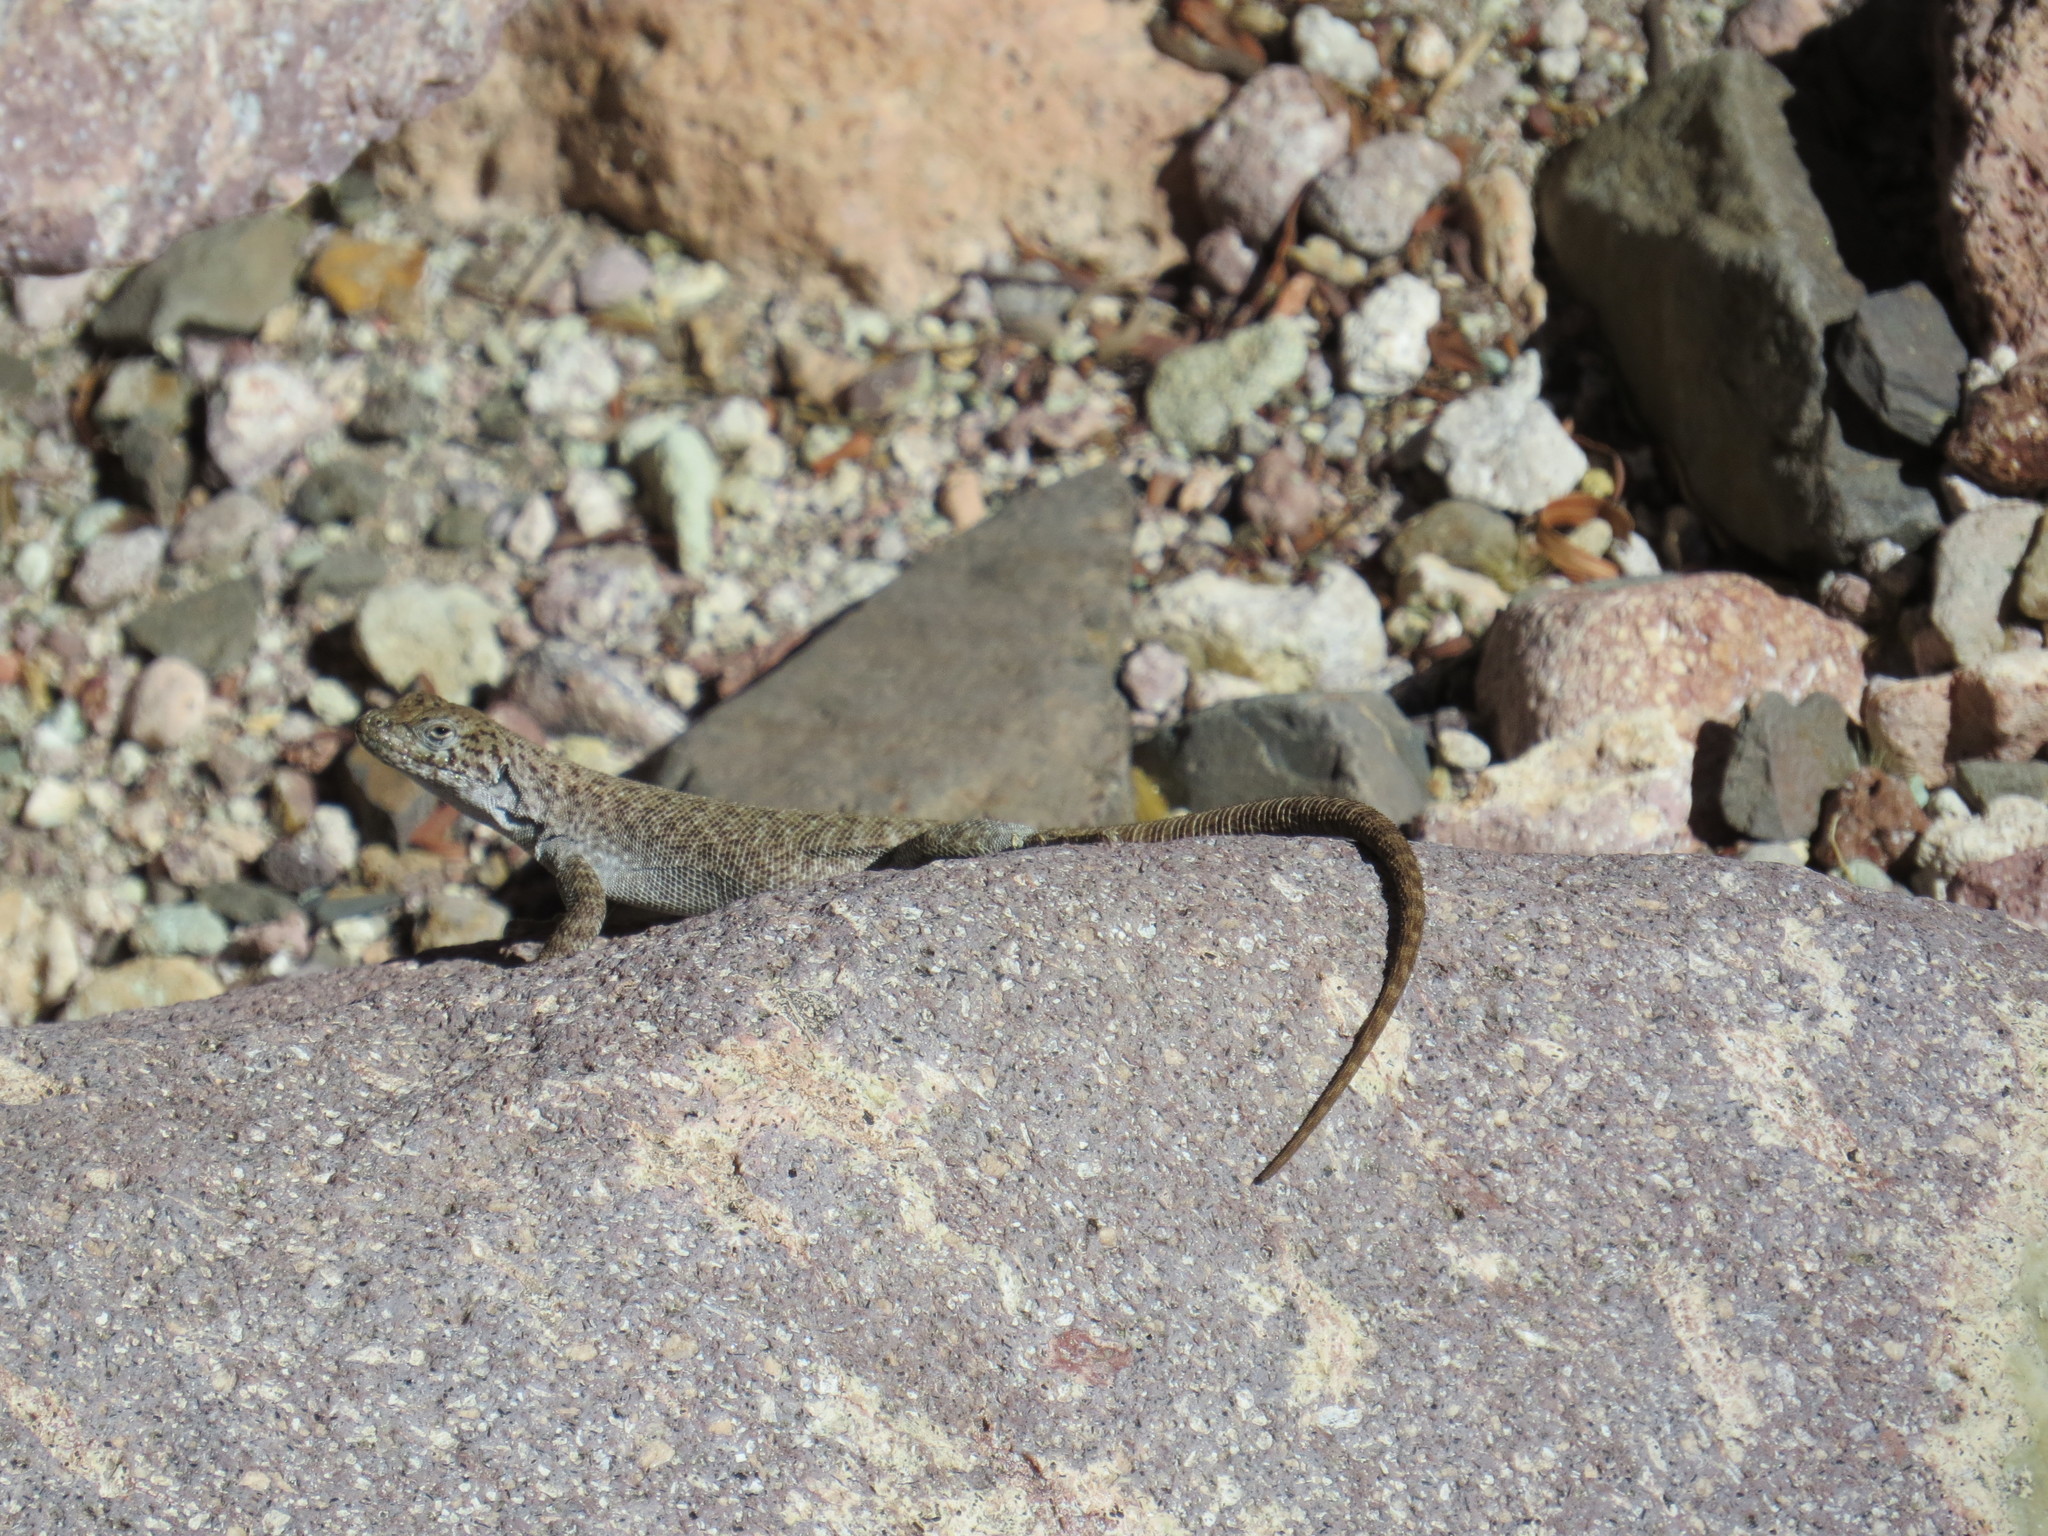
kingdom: Animalia
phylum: Chordata
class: Squamata
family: Liolaemidae
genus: Liolaemus
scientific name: Liolaemus austromendocinus
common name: Austromendocino tree iguana
